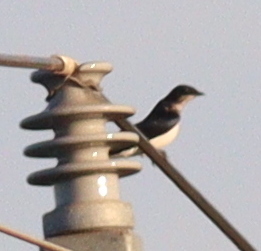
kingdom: Animalia
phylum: Chordata
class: Aves
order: Passeriformes
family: Hirundinidae
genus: Progne
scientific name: Progne chalybea
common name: Grey-breasted martin
